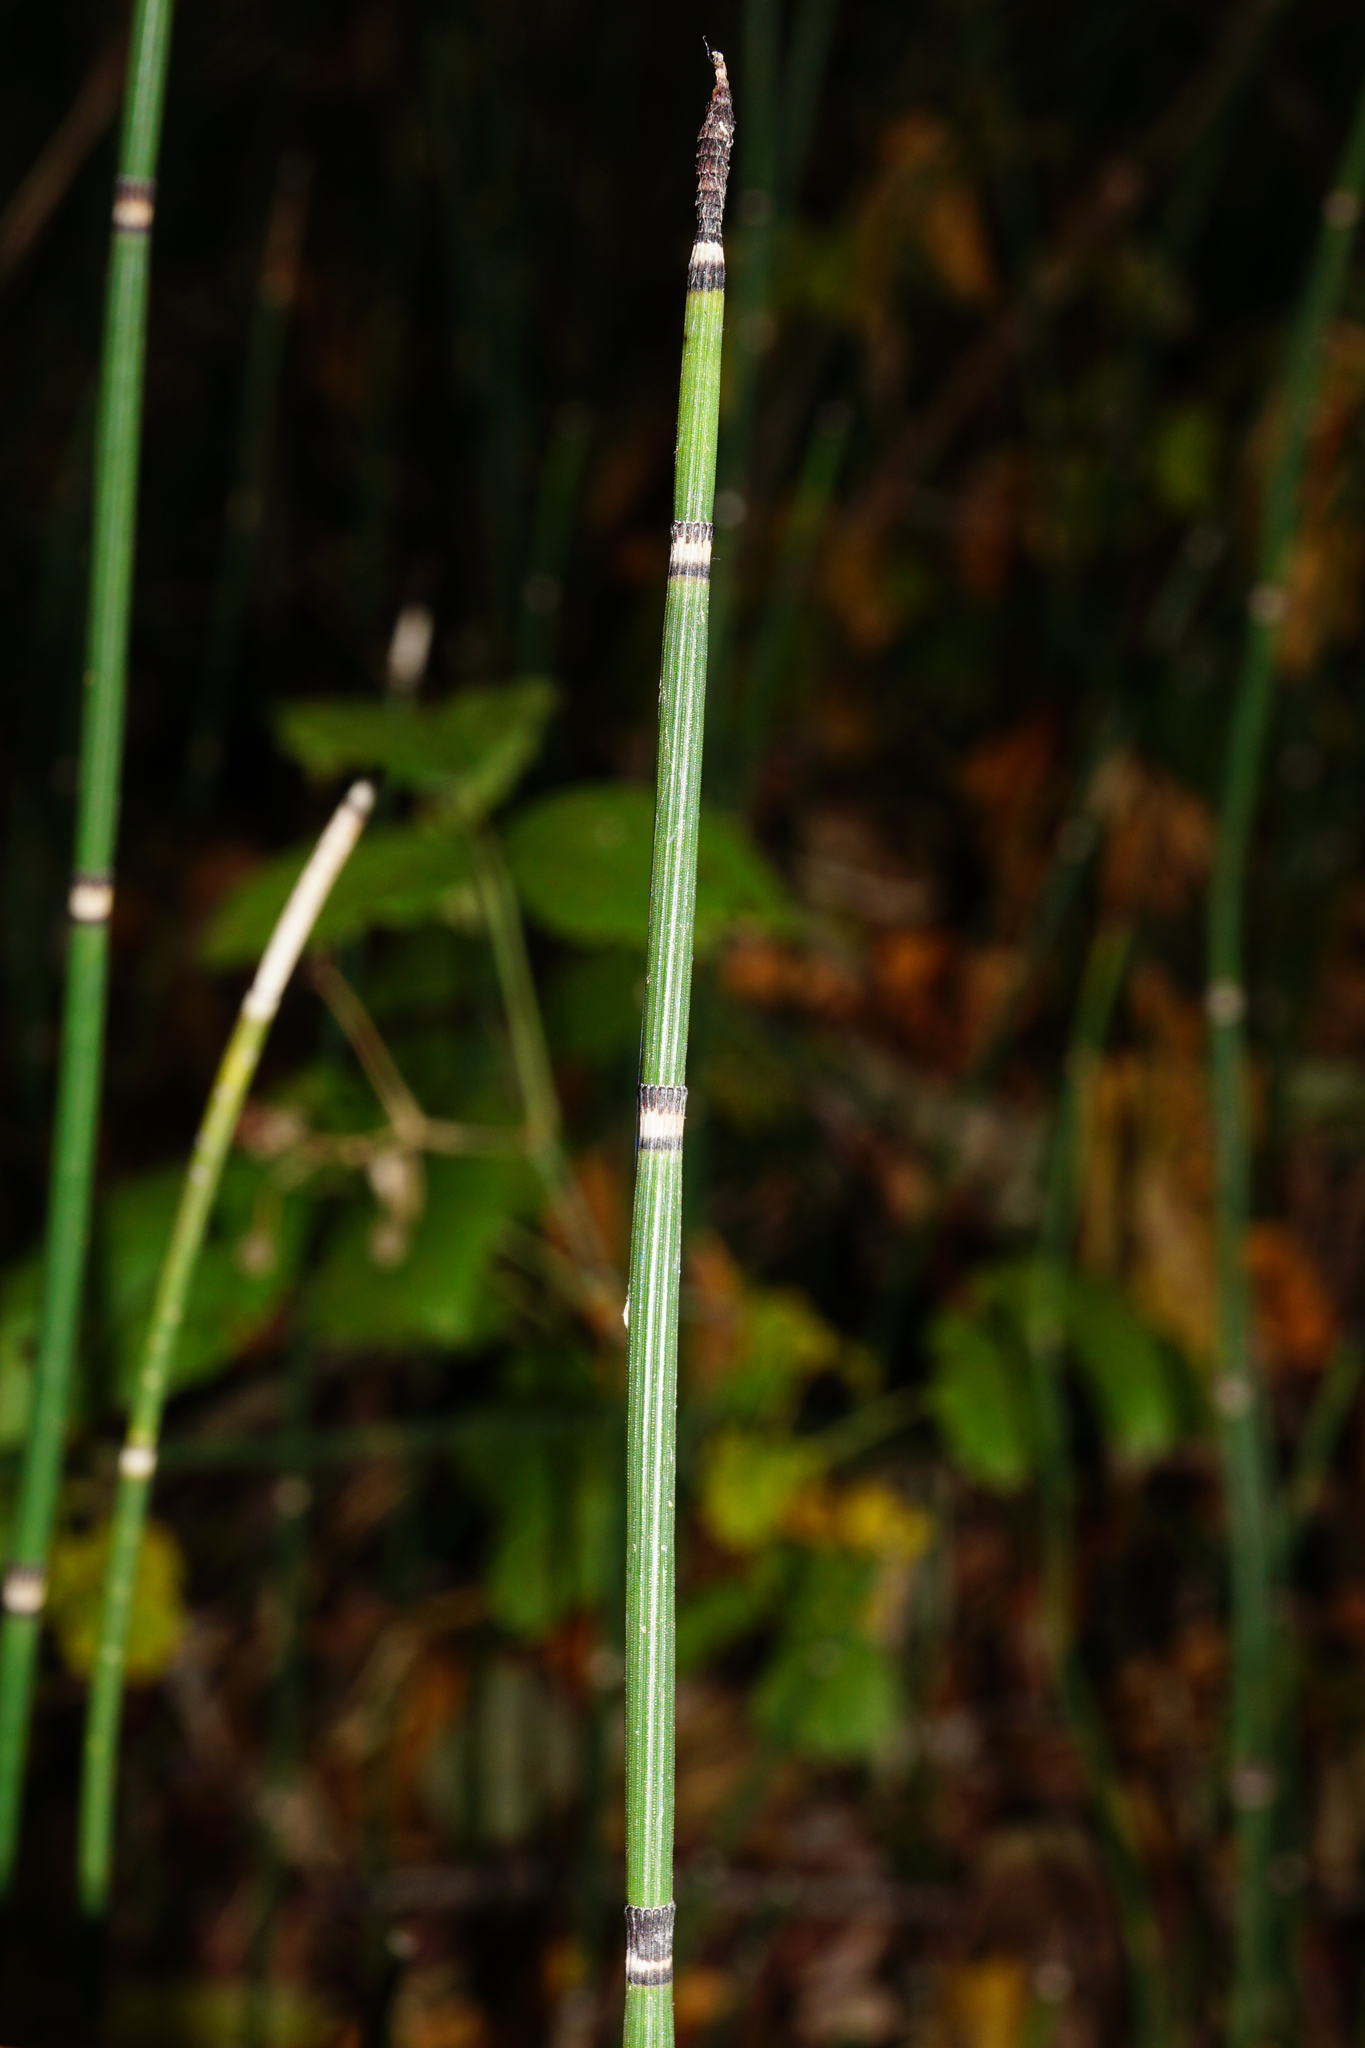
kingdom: Plantae
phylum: Tracheophyta
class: Polypodiopsida
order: Equisetales
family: Equisetaceae
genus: Equisetum
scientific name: Equisetum hyemale
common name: Rough horsetail
